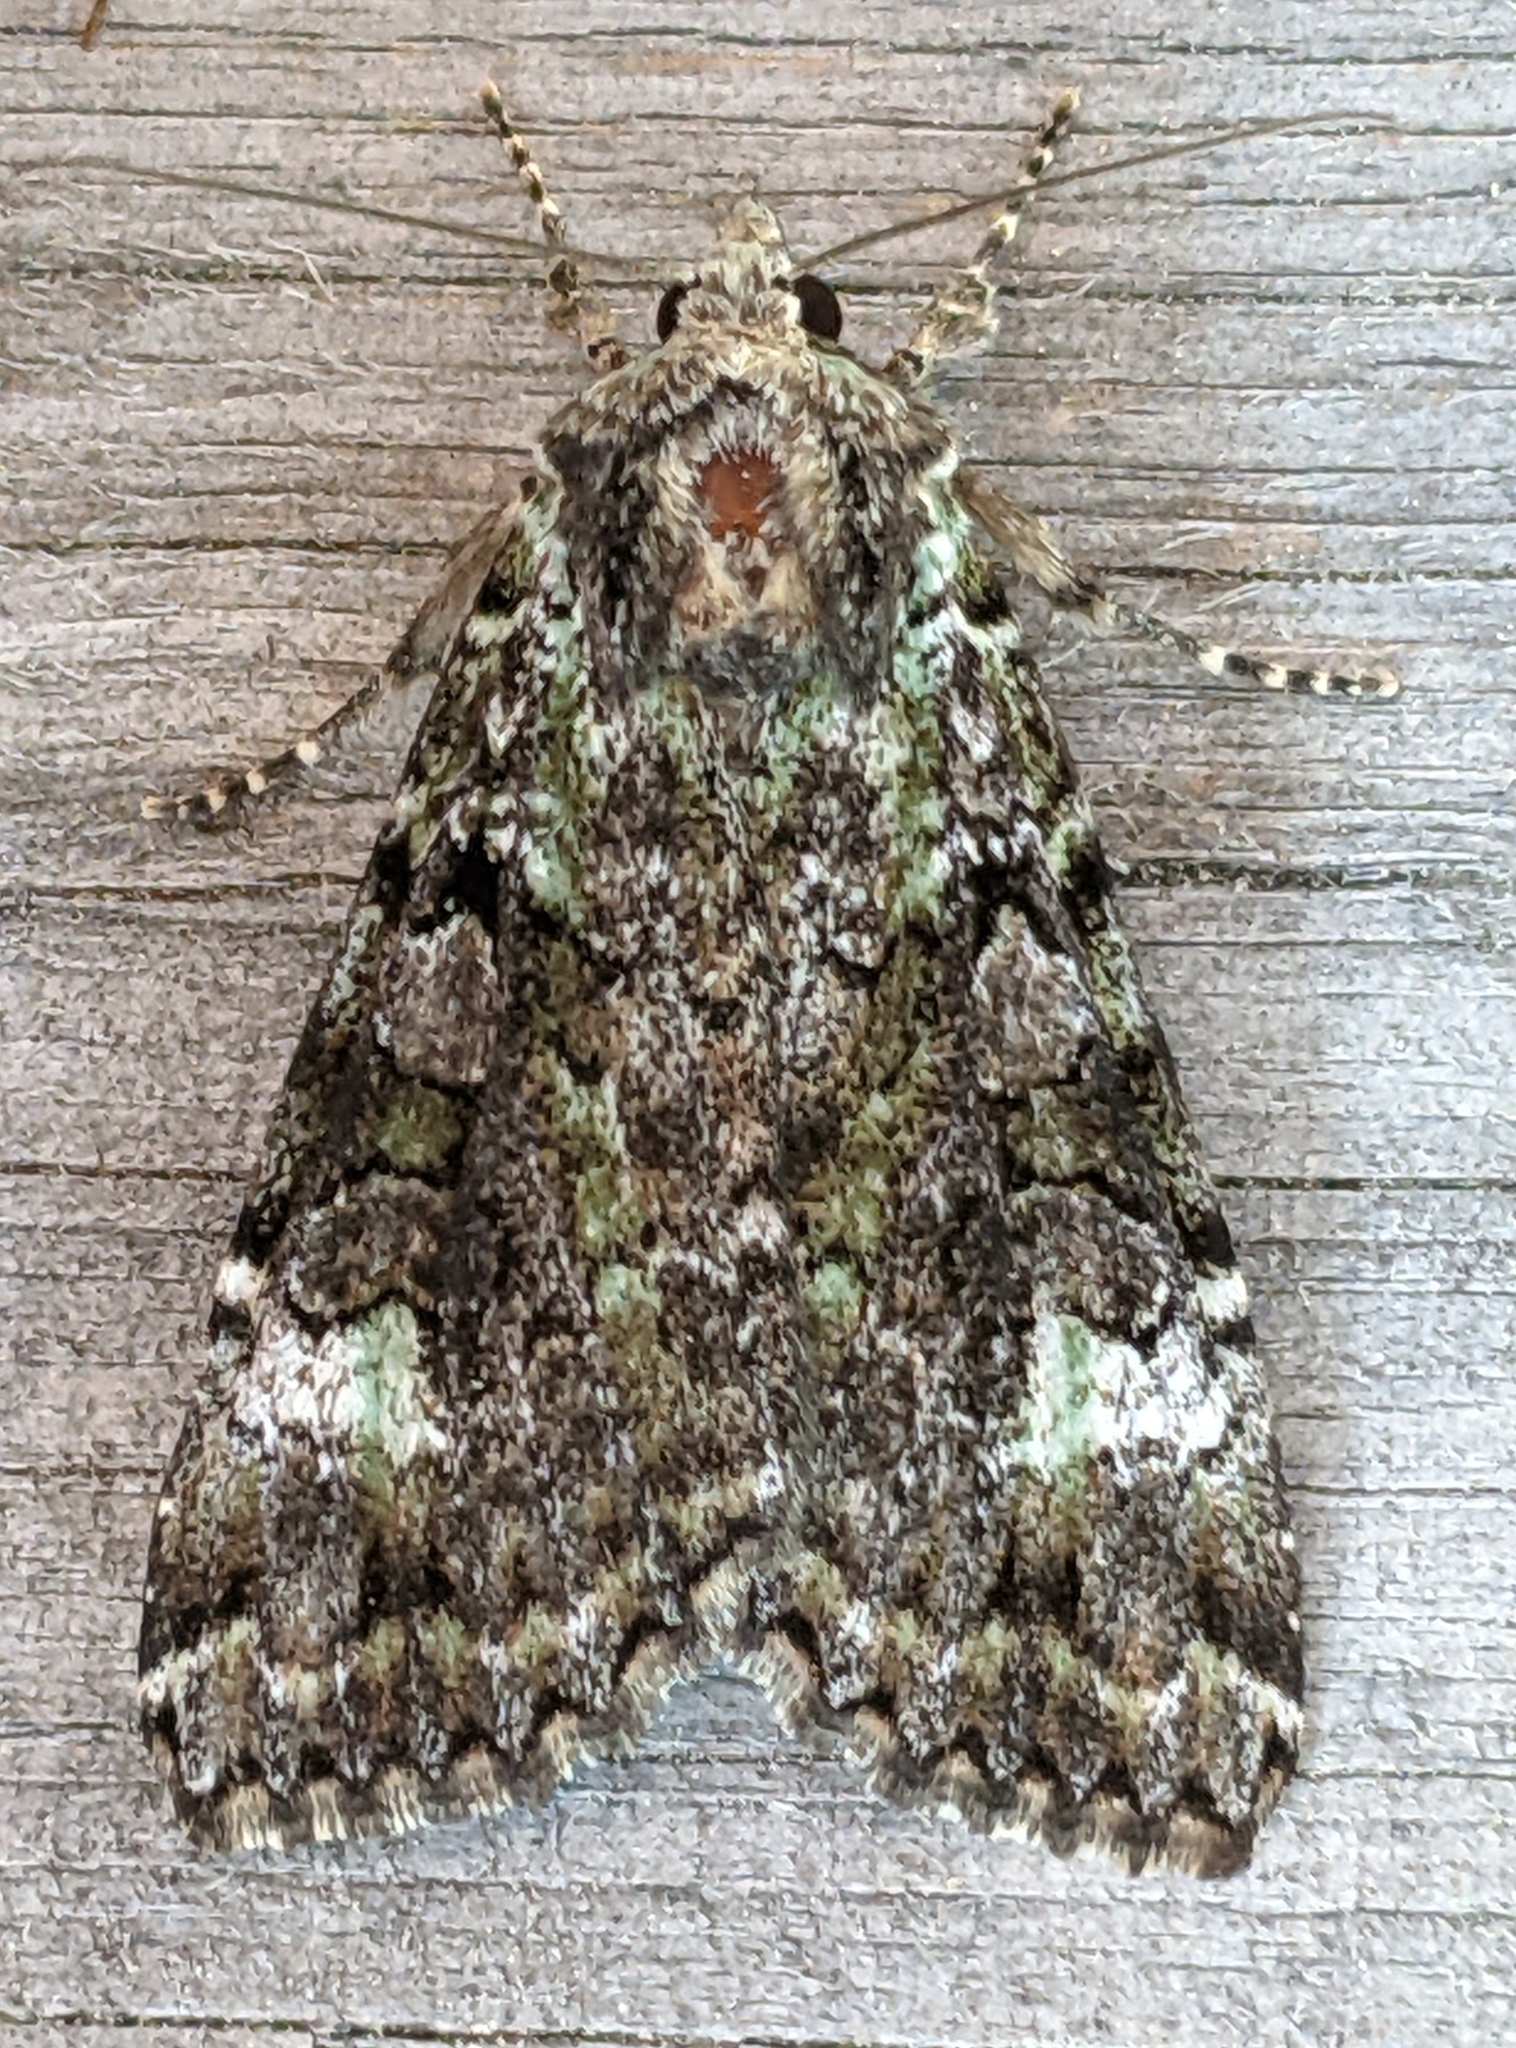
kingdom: Animalia
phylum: Arthropoda
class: Insecta
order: Lepidoptera
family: Noctuidae
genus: Anaplectoides
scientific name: Anaplectoides prasina
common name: Green arches
